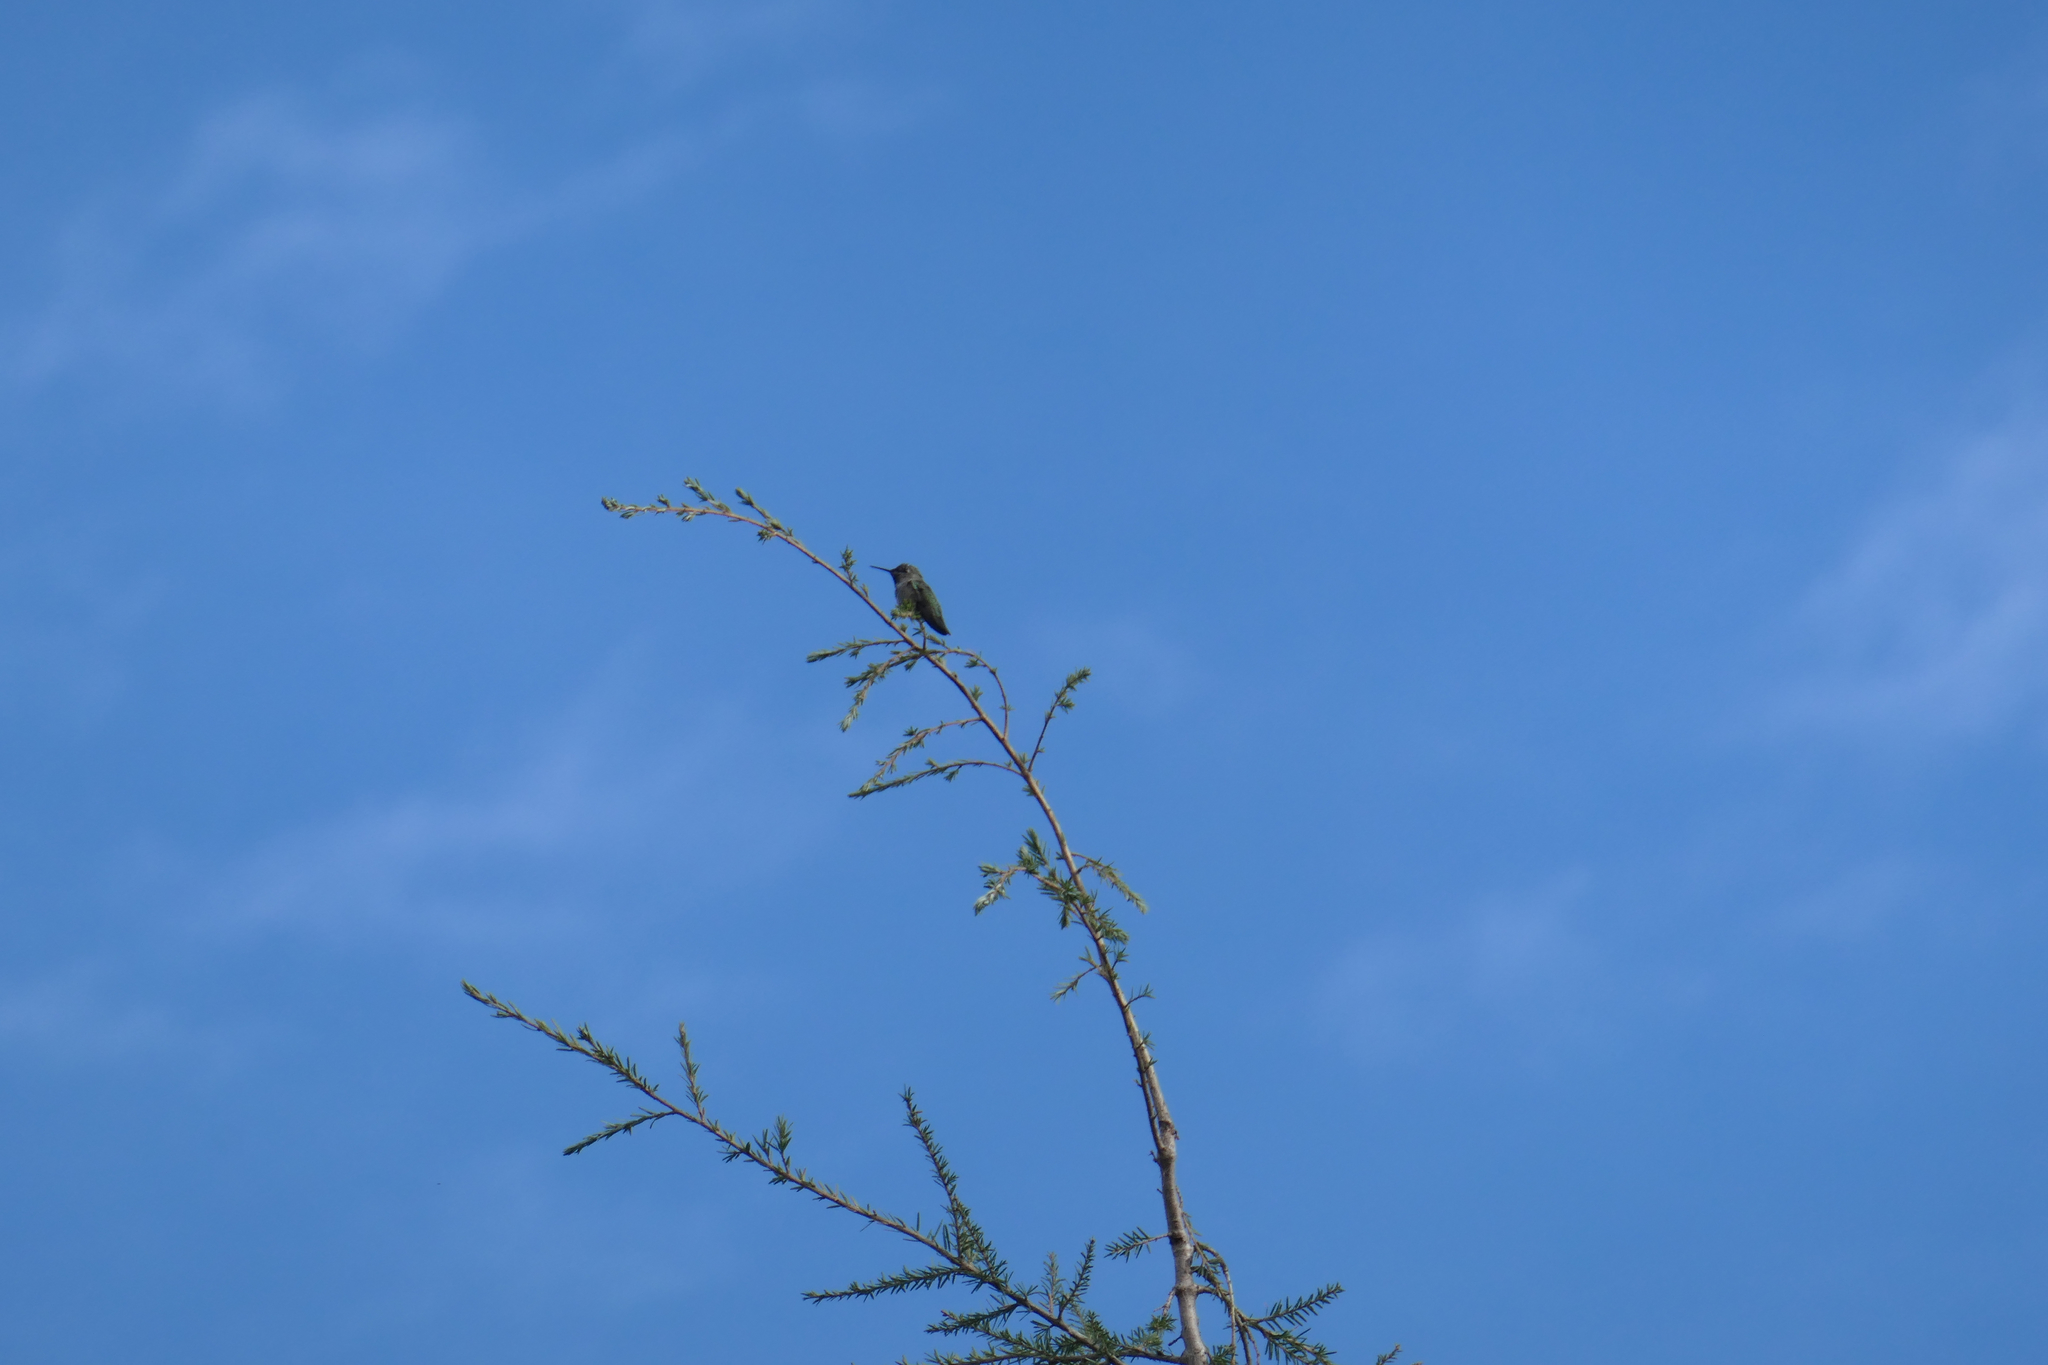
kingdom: Animalia
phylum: Chordata
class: Aves
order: Apodiformes
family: Trochilidae
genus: Calypte
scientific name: Calypte anna
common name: Anna's hummingbird
